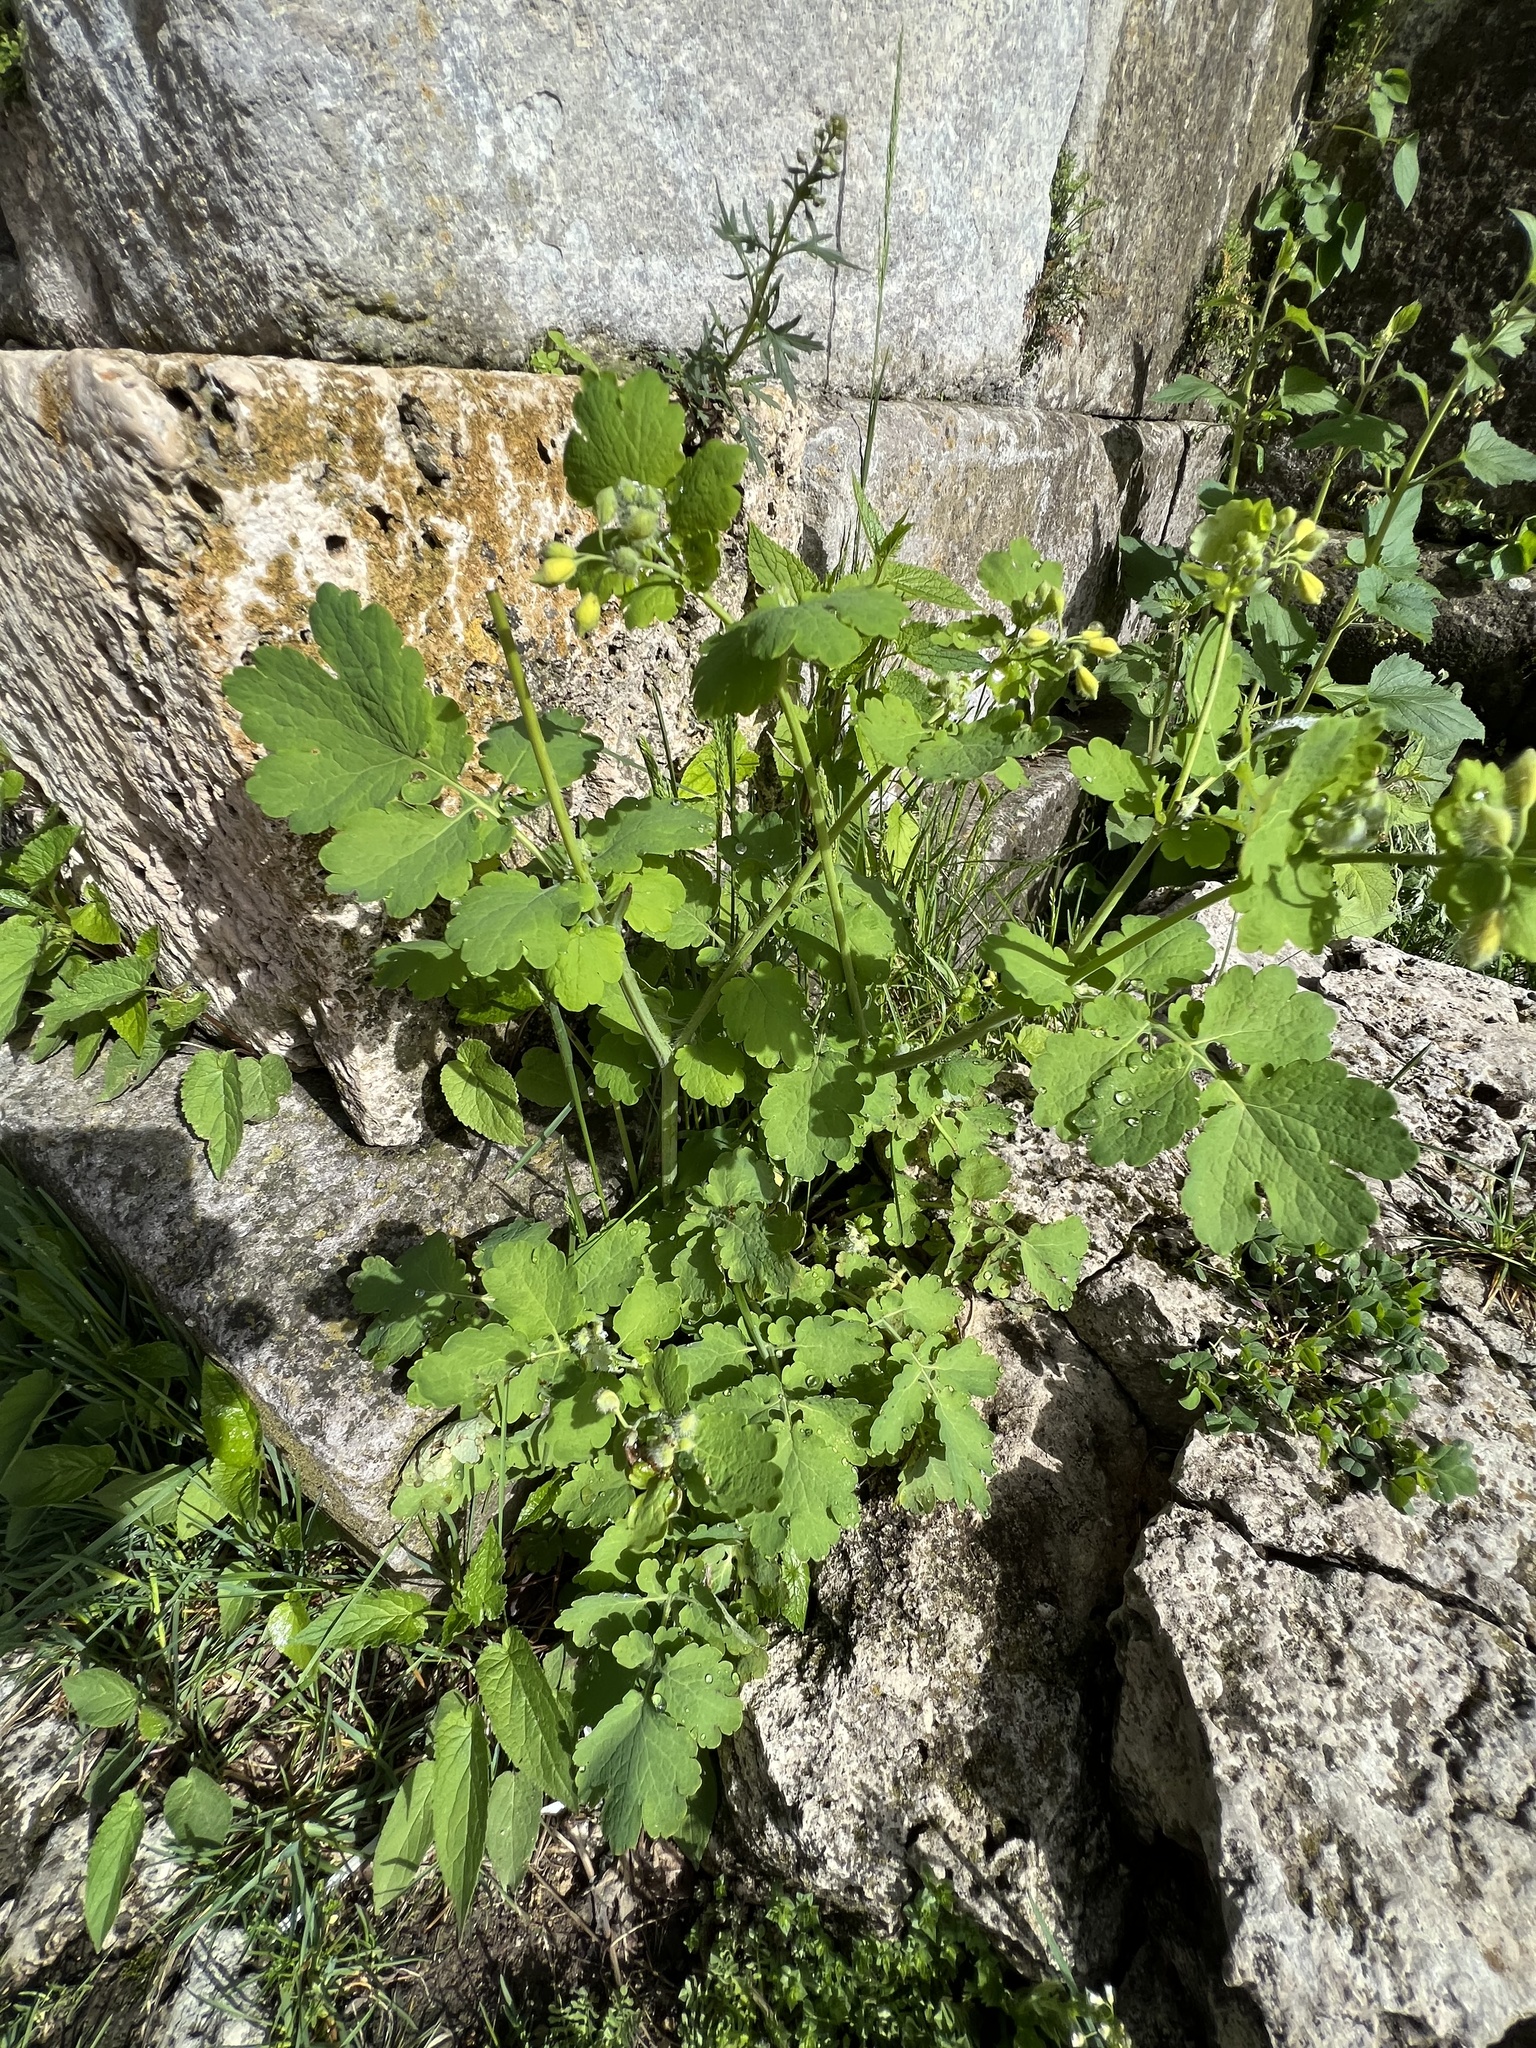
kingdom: Plantae
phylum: Tracheophyta
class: Magnoliopsida
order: Ranunculales
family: Papaveraceae
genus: Chelidonium
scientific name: Chelidonium majus
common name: Greater celandine
